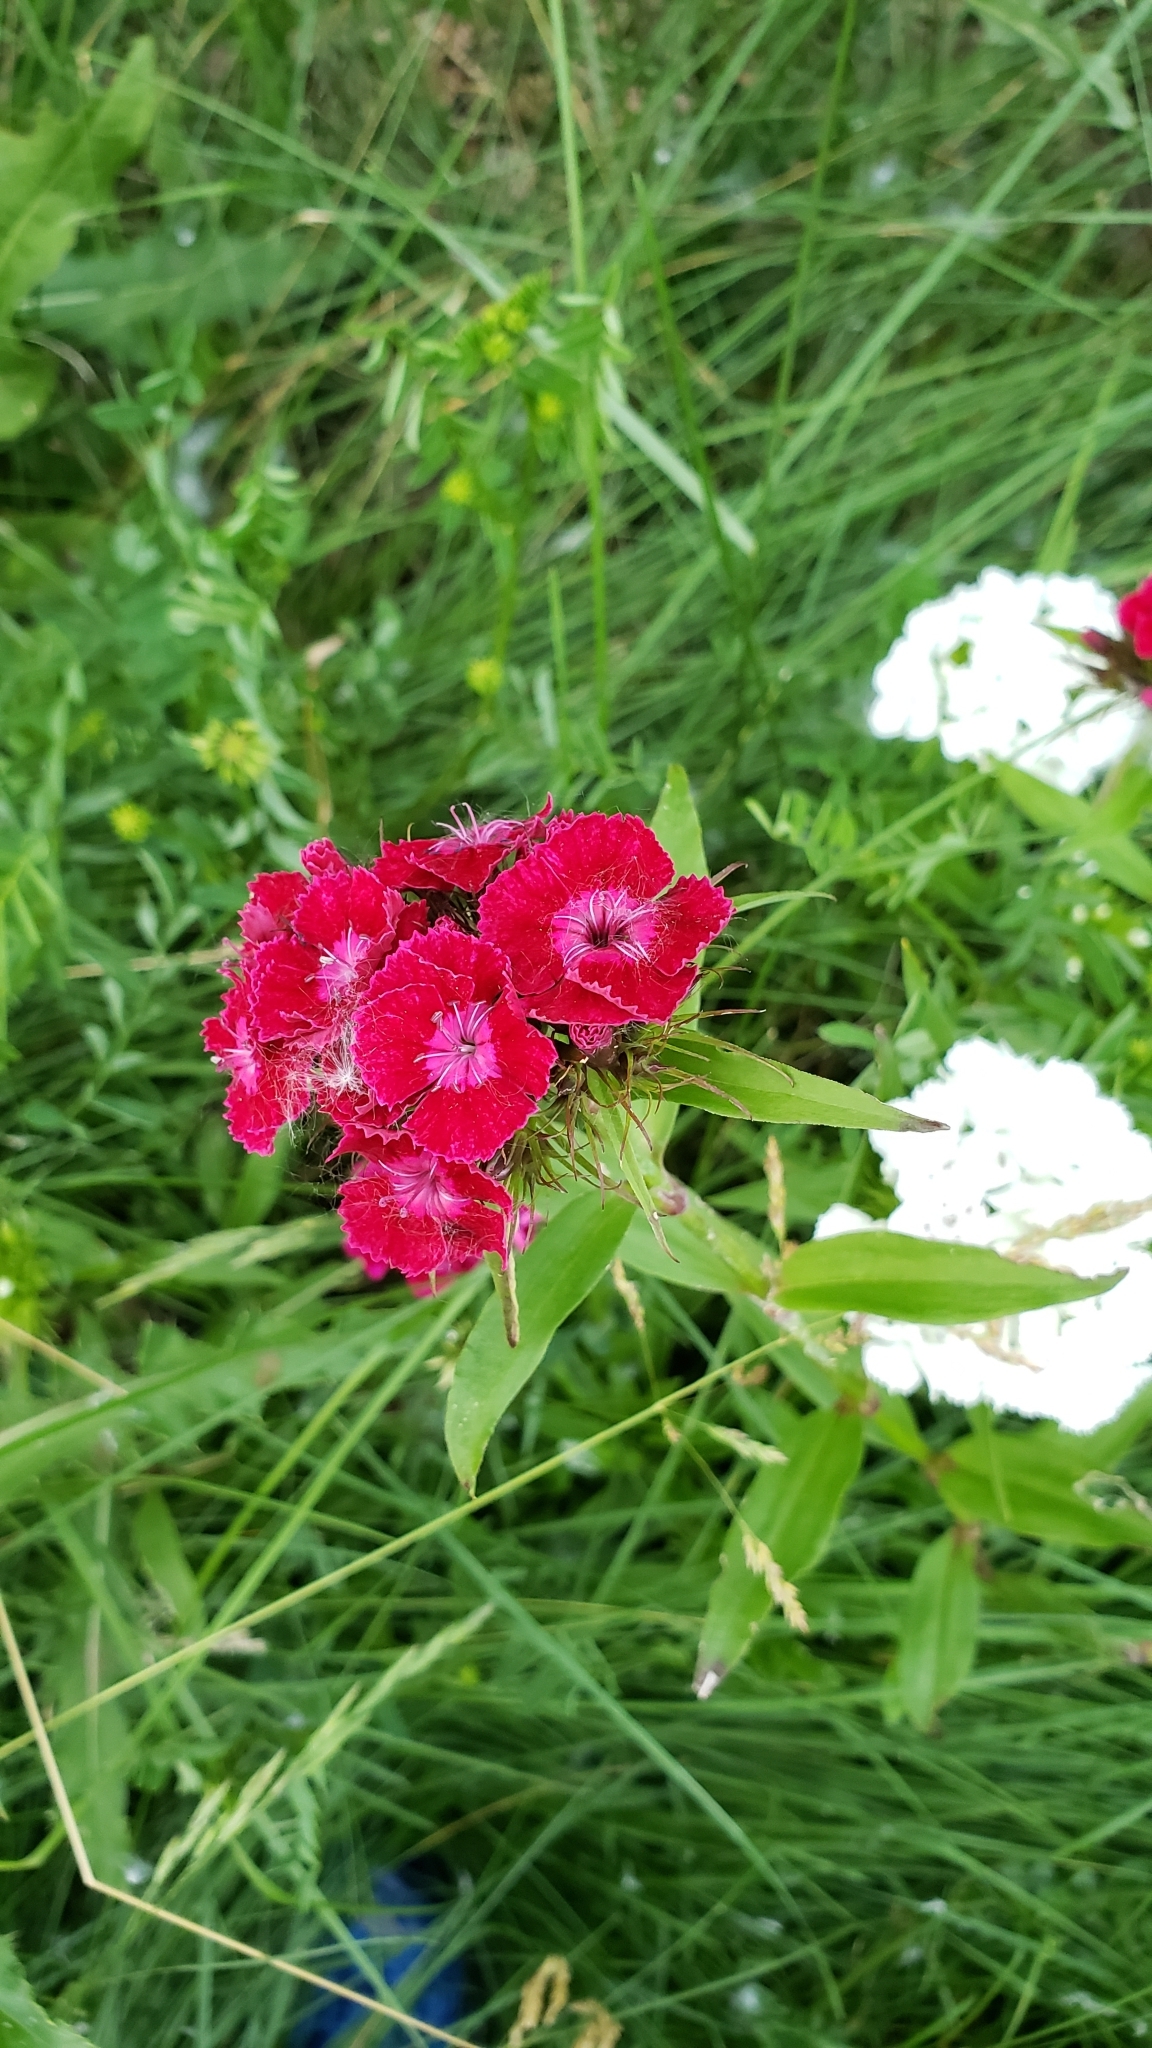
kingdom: Plantae
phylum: Tracheophyta
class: Magnoliopsida
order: Caryophyllales
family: Caryophyllaceae
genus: Dianthus
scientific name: Dianthus barbatus
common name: Sweet-william
